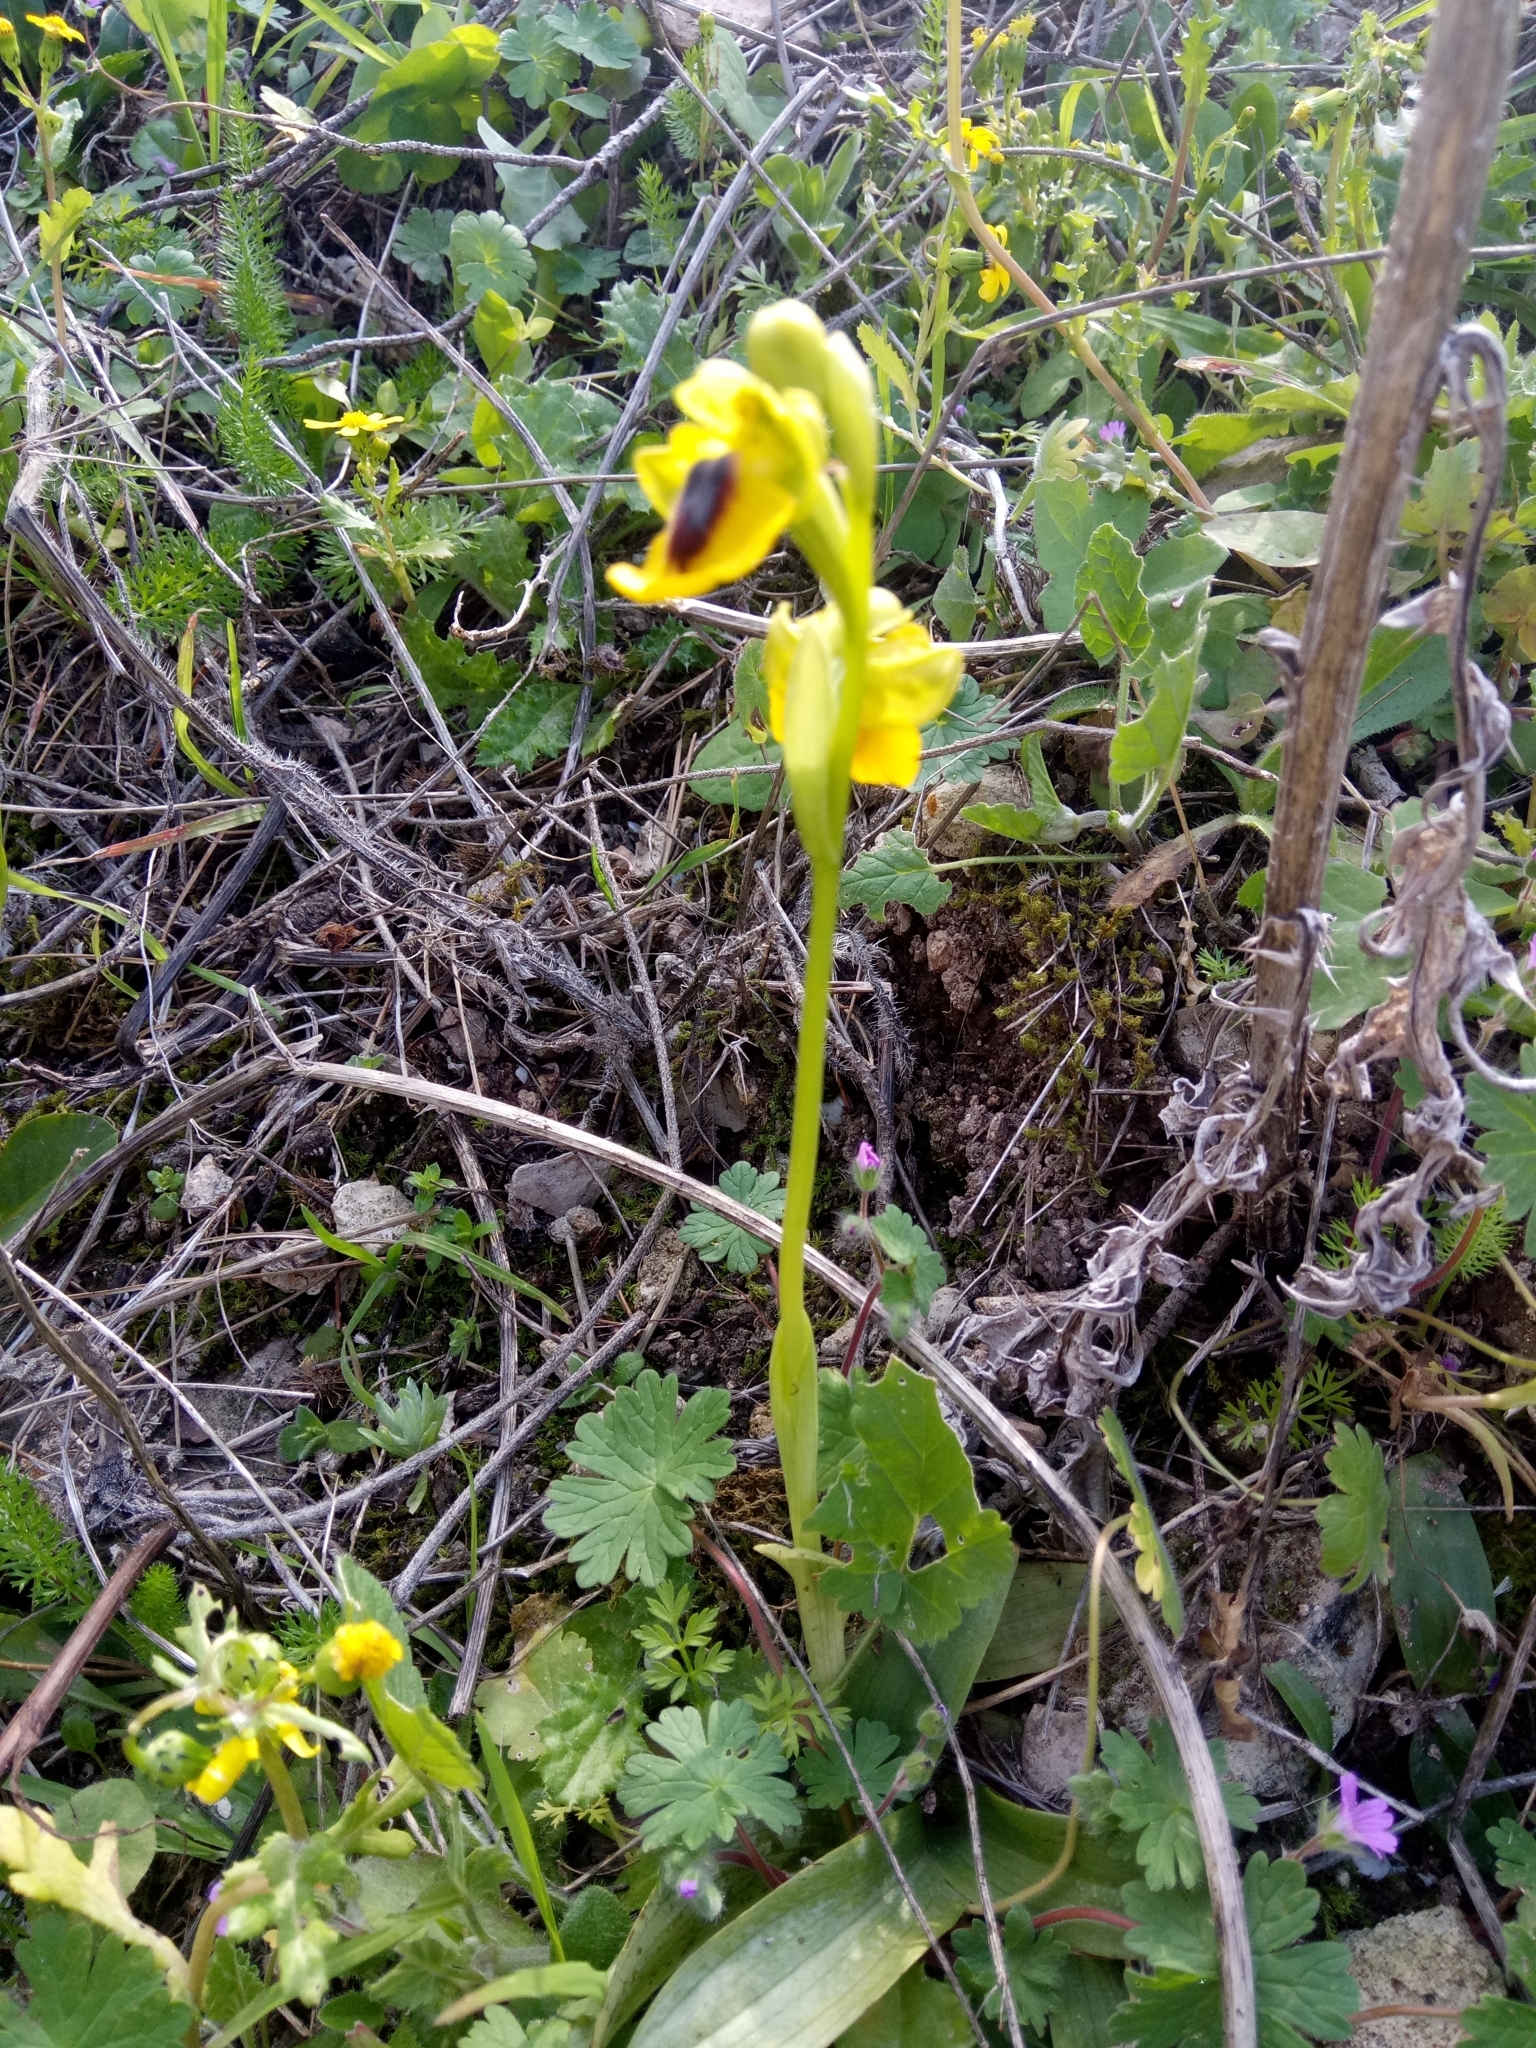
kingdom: Plantae
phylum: Tracheophyta
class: Liliopsida
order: Asparagales
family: Orchidaceae
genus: Ophrys
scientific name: Ophrys lutea
